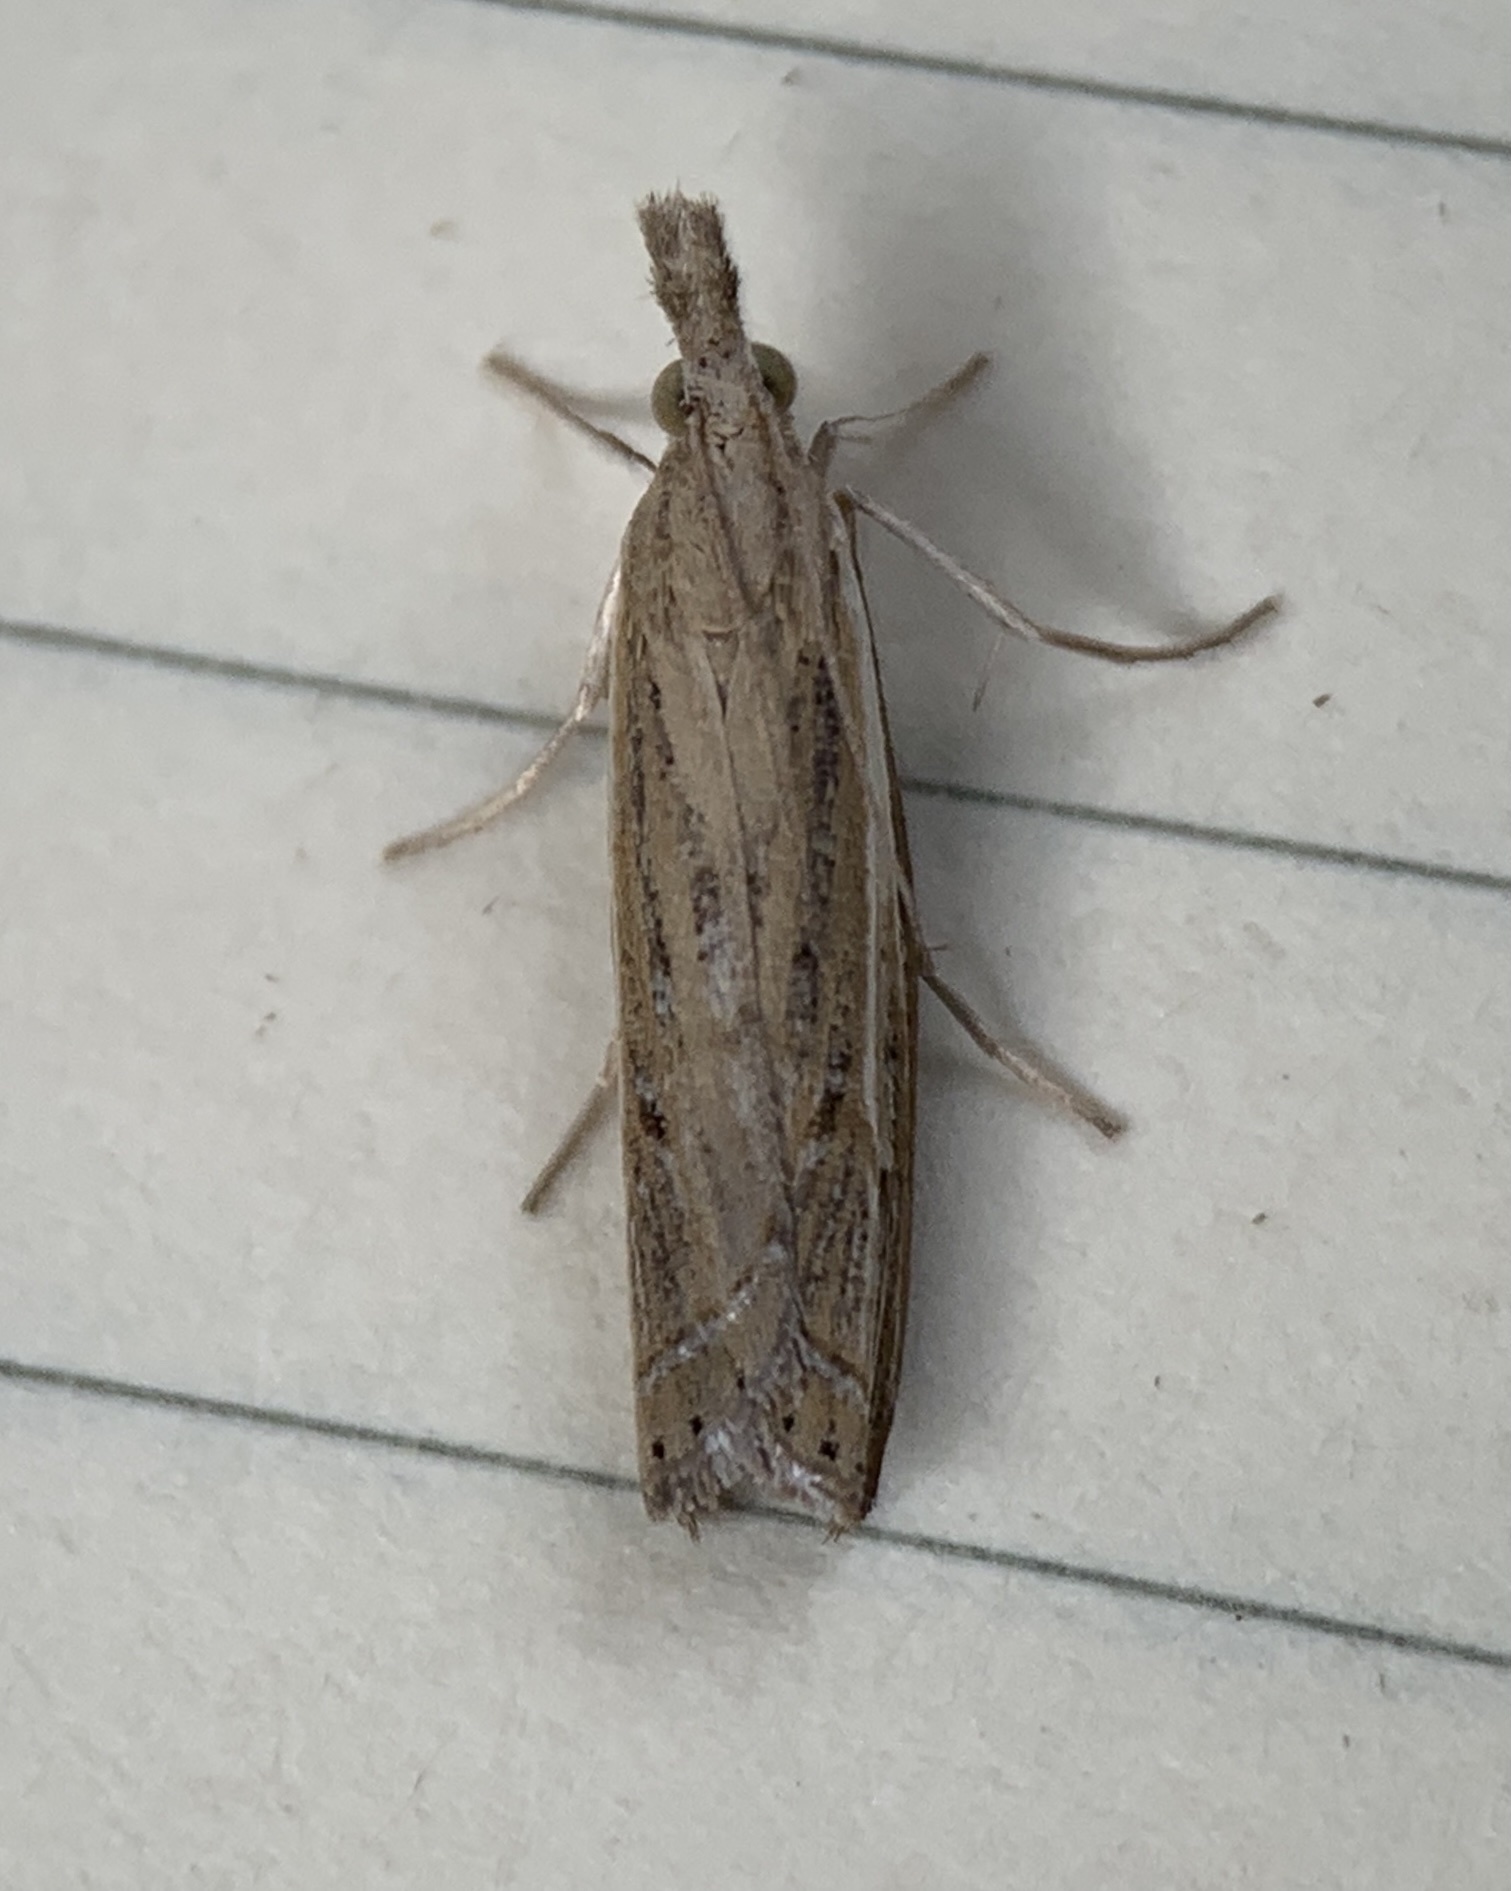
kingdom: Animalia
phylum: Arthropoda
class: Insecta
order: Lepidoptera
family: Crambidae
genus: Fissicrambus
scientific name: Fissicrambus quadrinotellus
